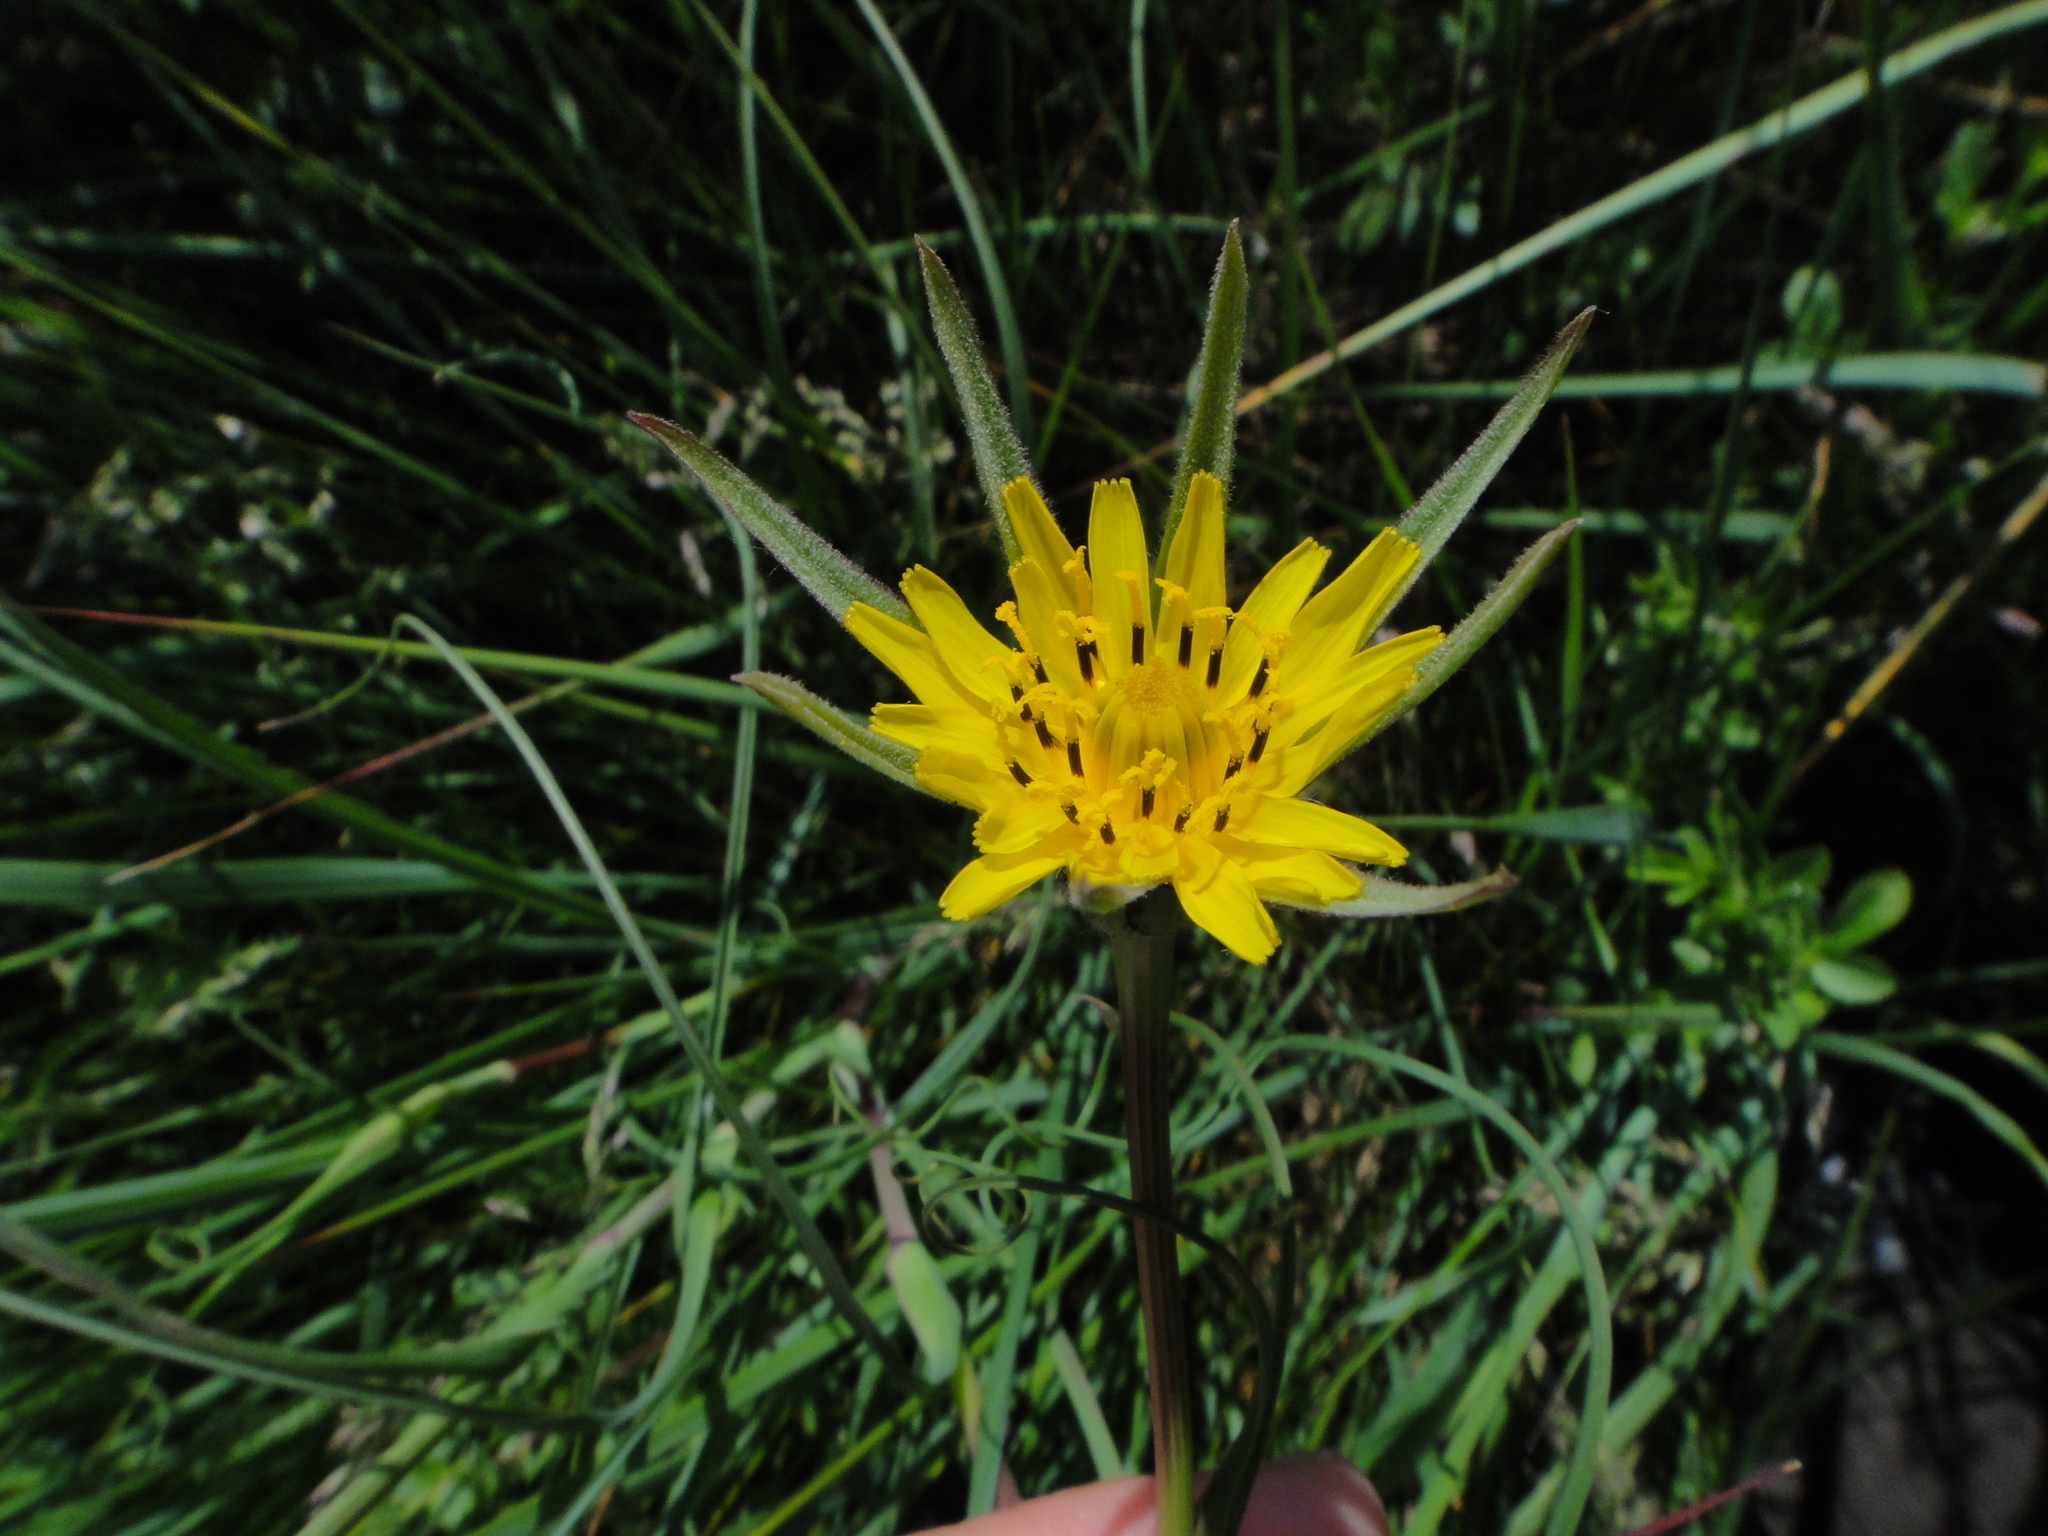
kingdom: Plantae
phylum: Tracheophyta
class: Magnoliopsida
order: Asterales
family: Asteraceae
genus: Tragopogon
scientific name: Tragopogon minor
